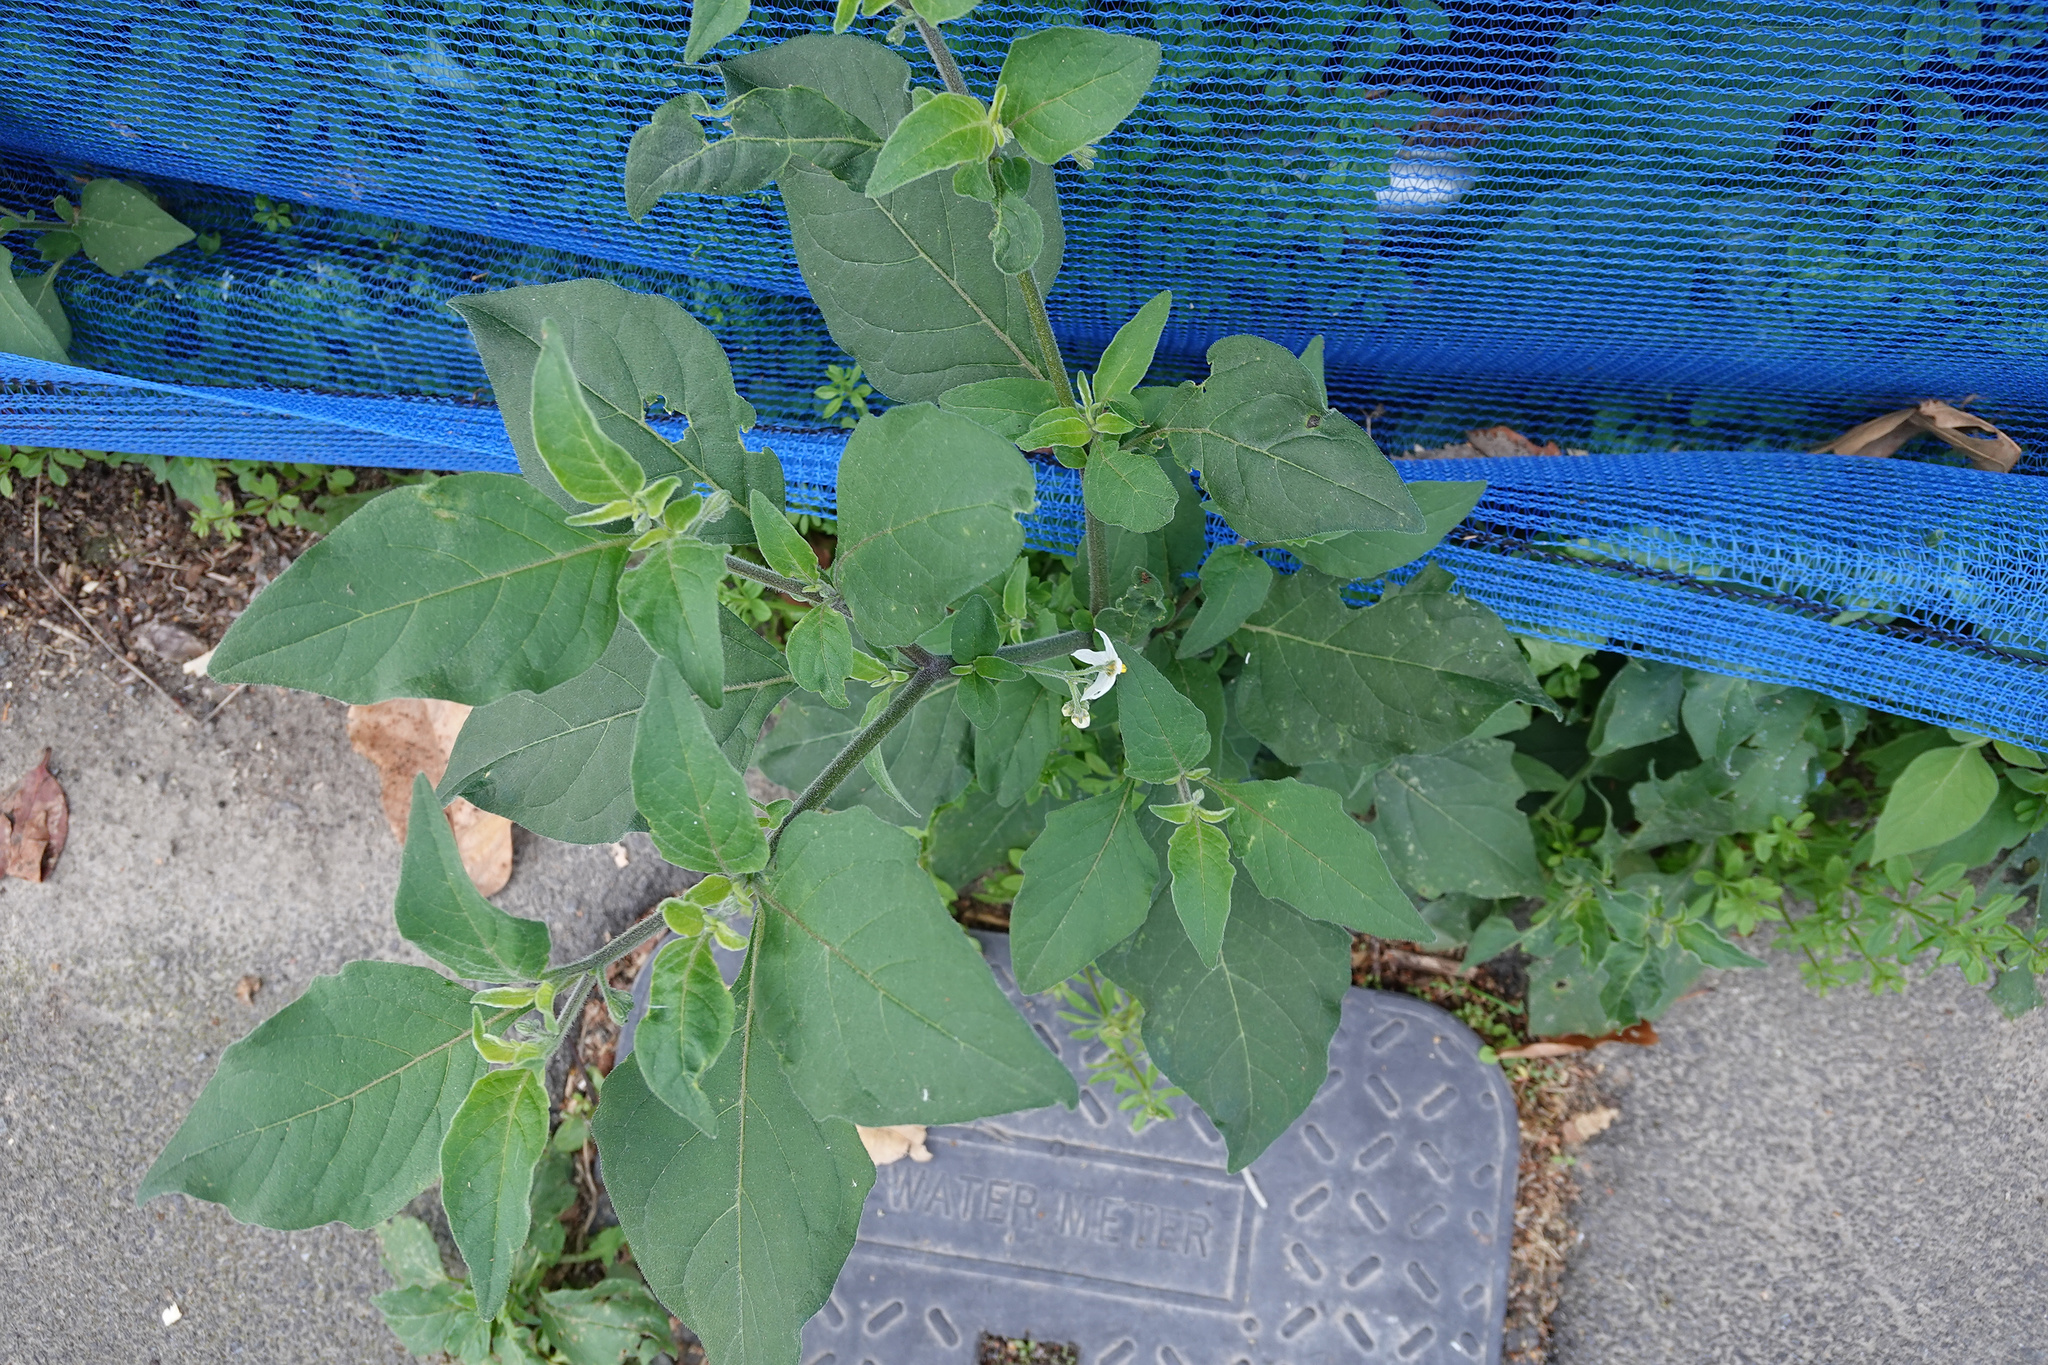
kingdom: Plantae
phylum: Tracheophyta
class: Magnoliopsida
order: Solanales
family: Solanaceae
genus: Solanum
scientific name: Solanum chenopodioides
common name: Tall nightshade
